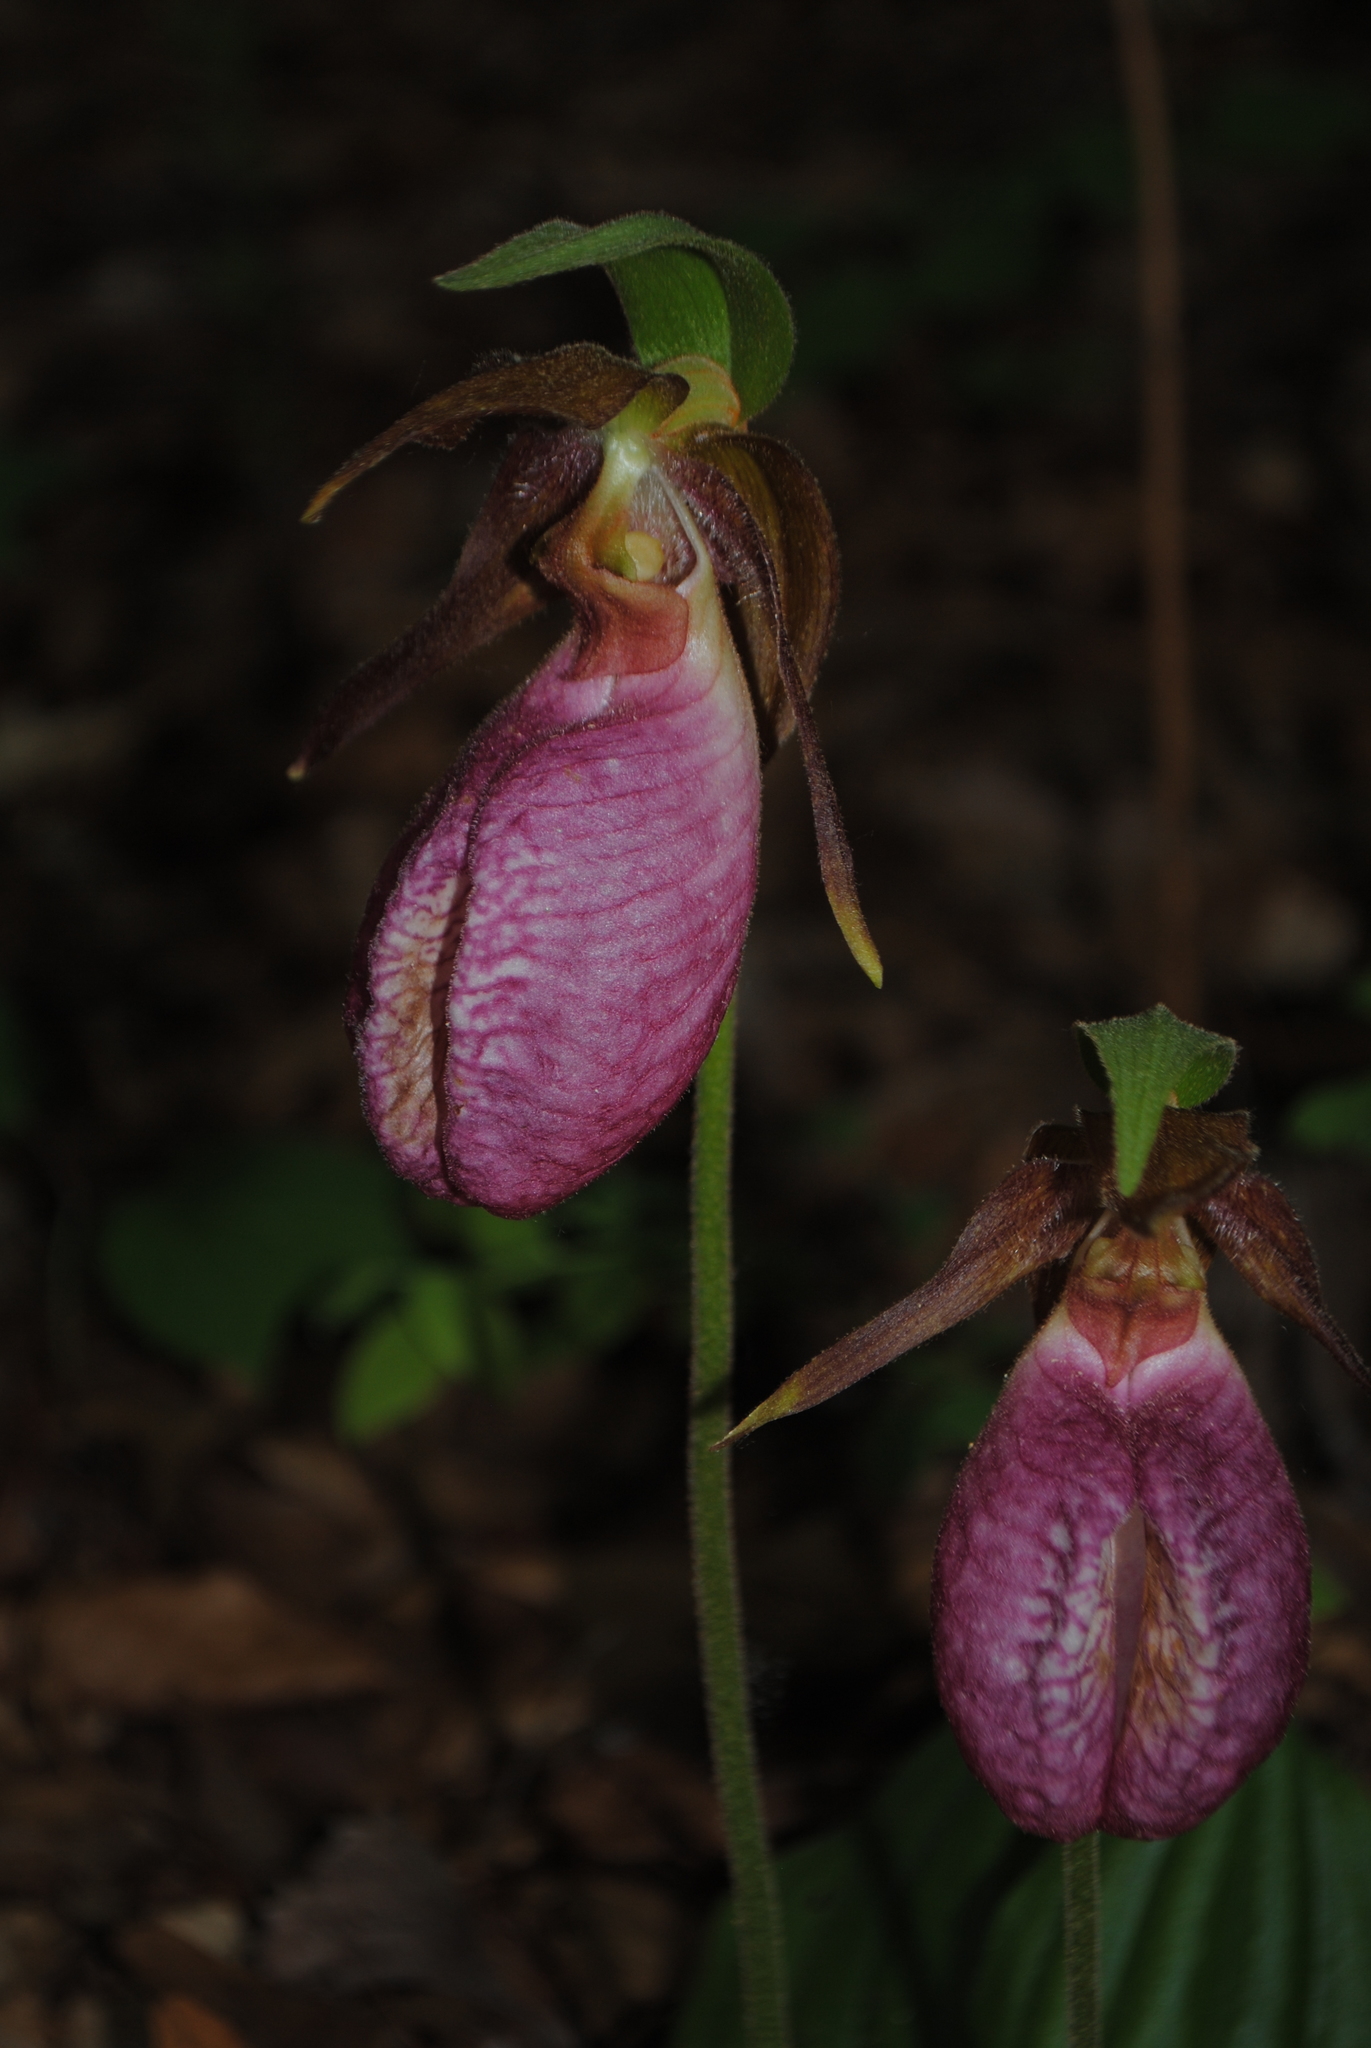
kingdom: Plantae
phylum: Tracheophyta
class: Liliopsida
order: Asparagales
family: Orchidaceae
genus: Cypripedium
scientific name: Cypripedium acaule
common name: Pink lady's-slipper
